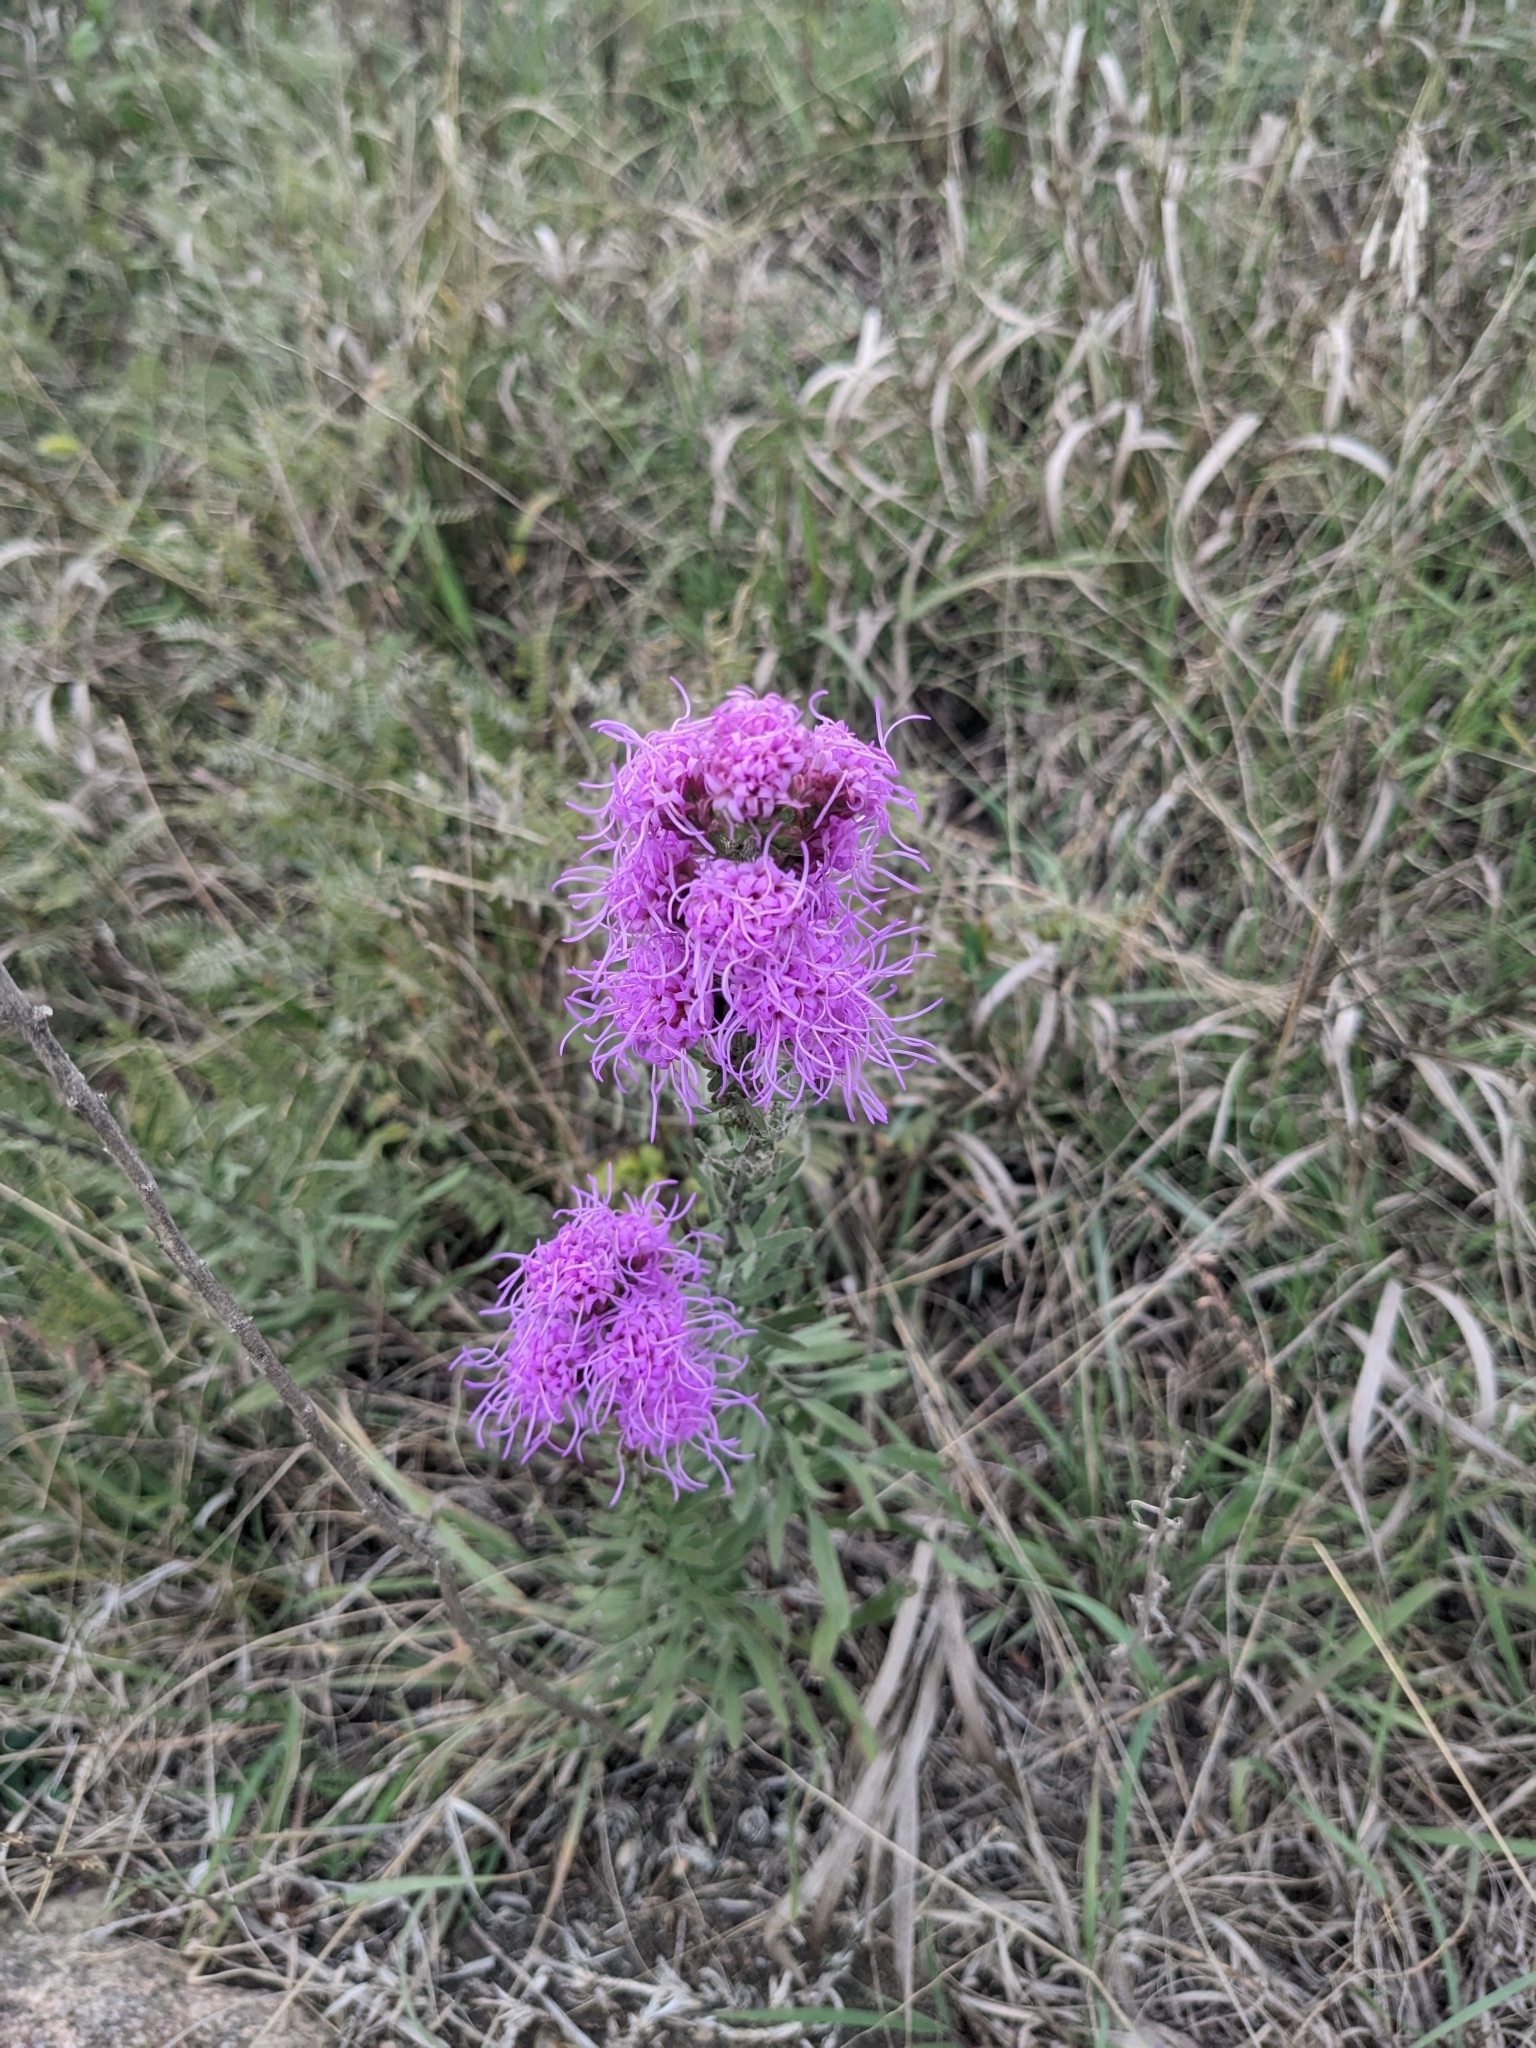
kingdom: Plantae
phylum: Tracheophyta
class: Magnoliopsida
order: Asterales
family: Asteraceae
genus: Liatris
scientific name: Liatris aspera
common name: Lacerate blazing-star
